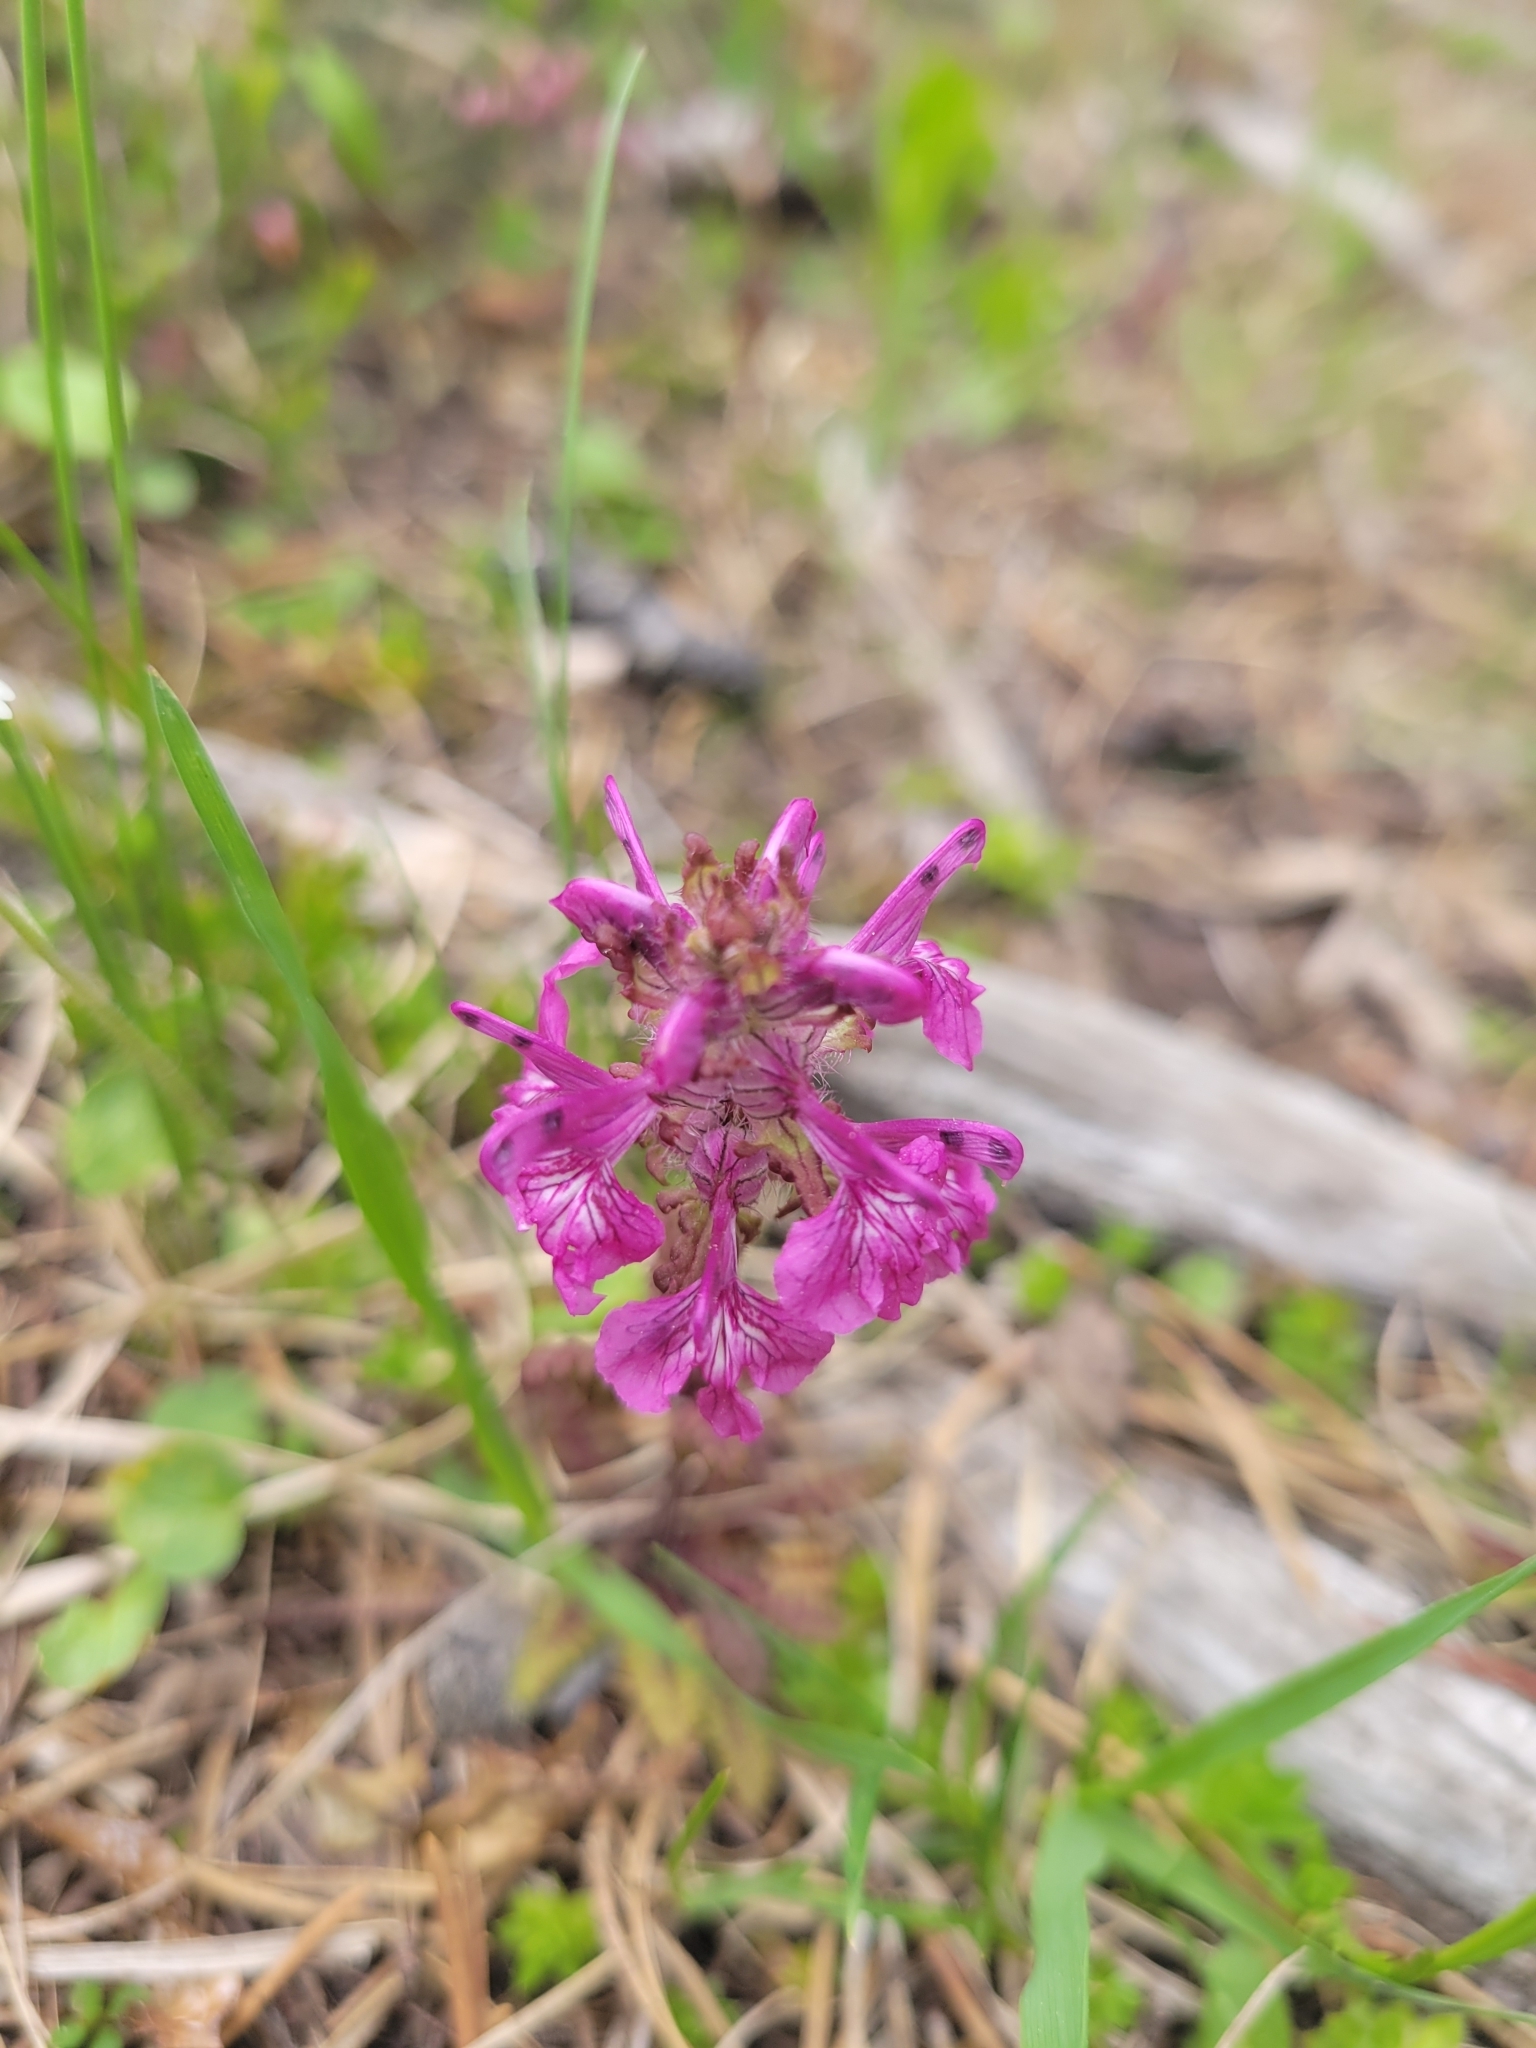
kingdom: Plantae
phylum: Tracheophyta
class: Magnoliopsida
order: Lamiales
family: Orobanchaceae
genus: Pedicularis
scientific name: Pedicularis verticillata
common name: Whorled lousewort
